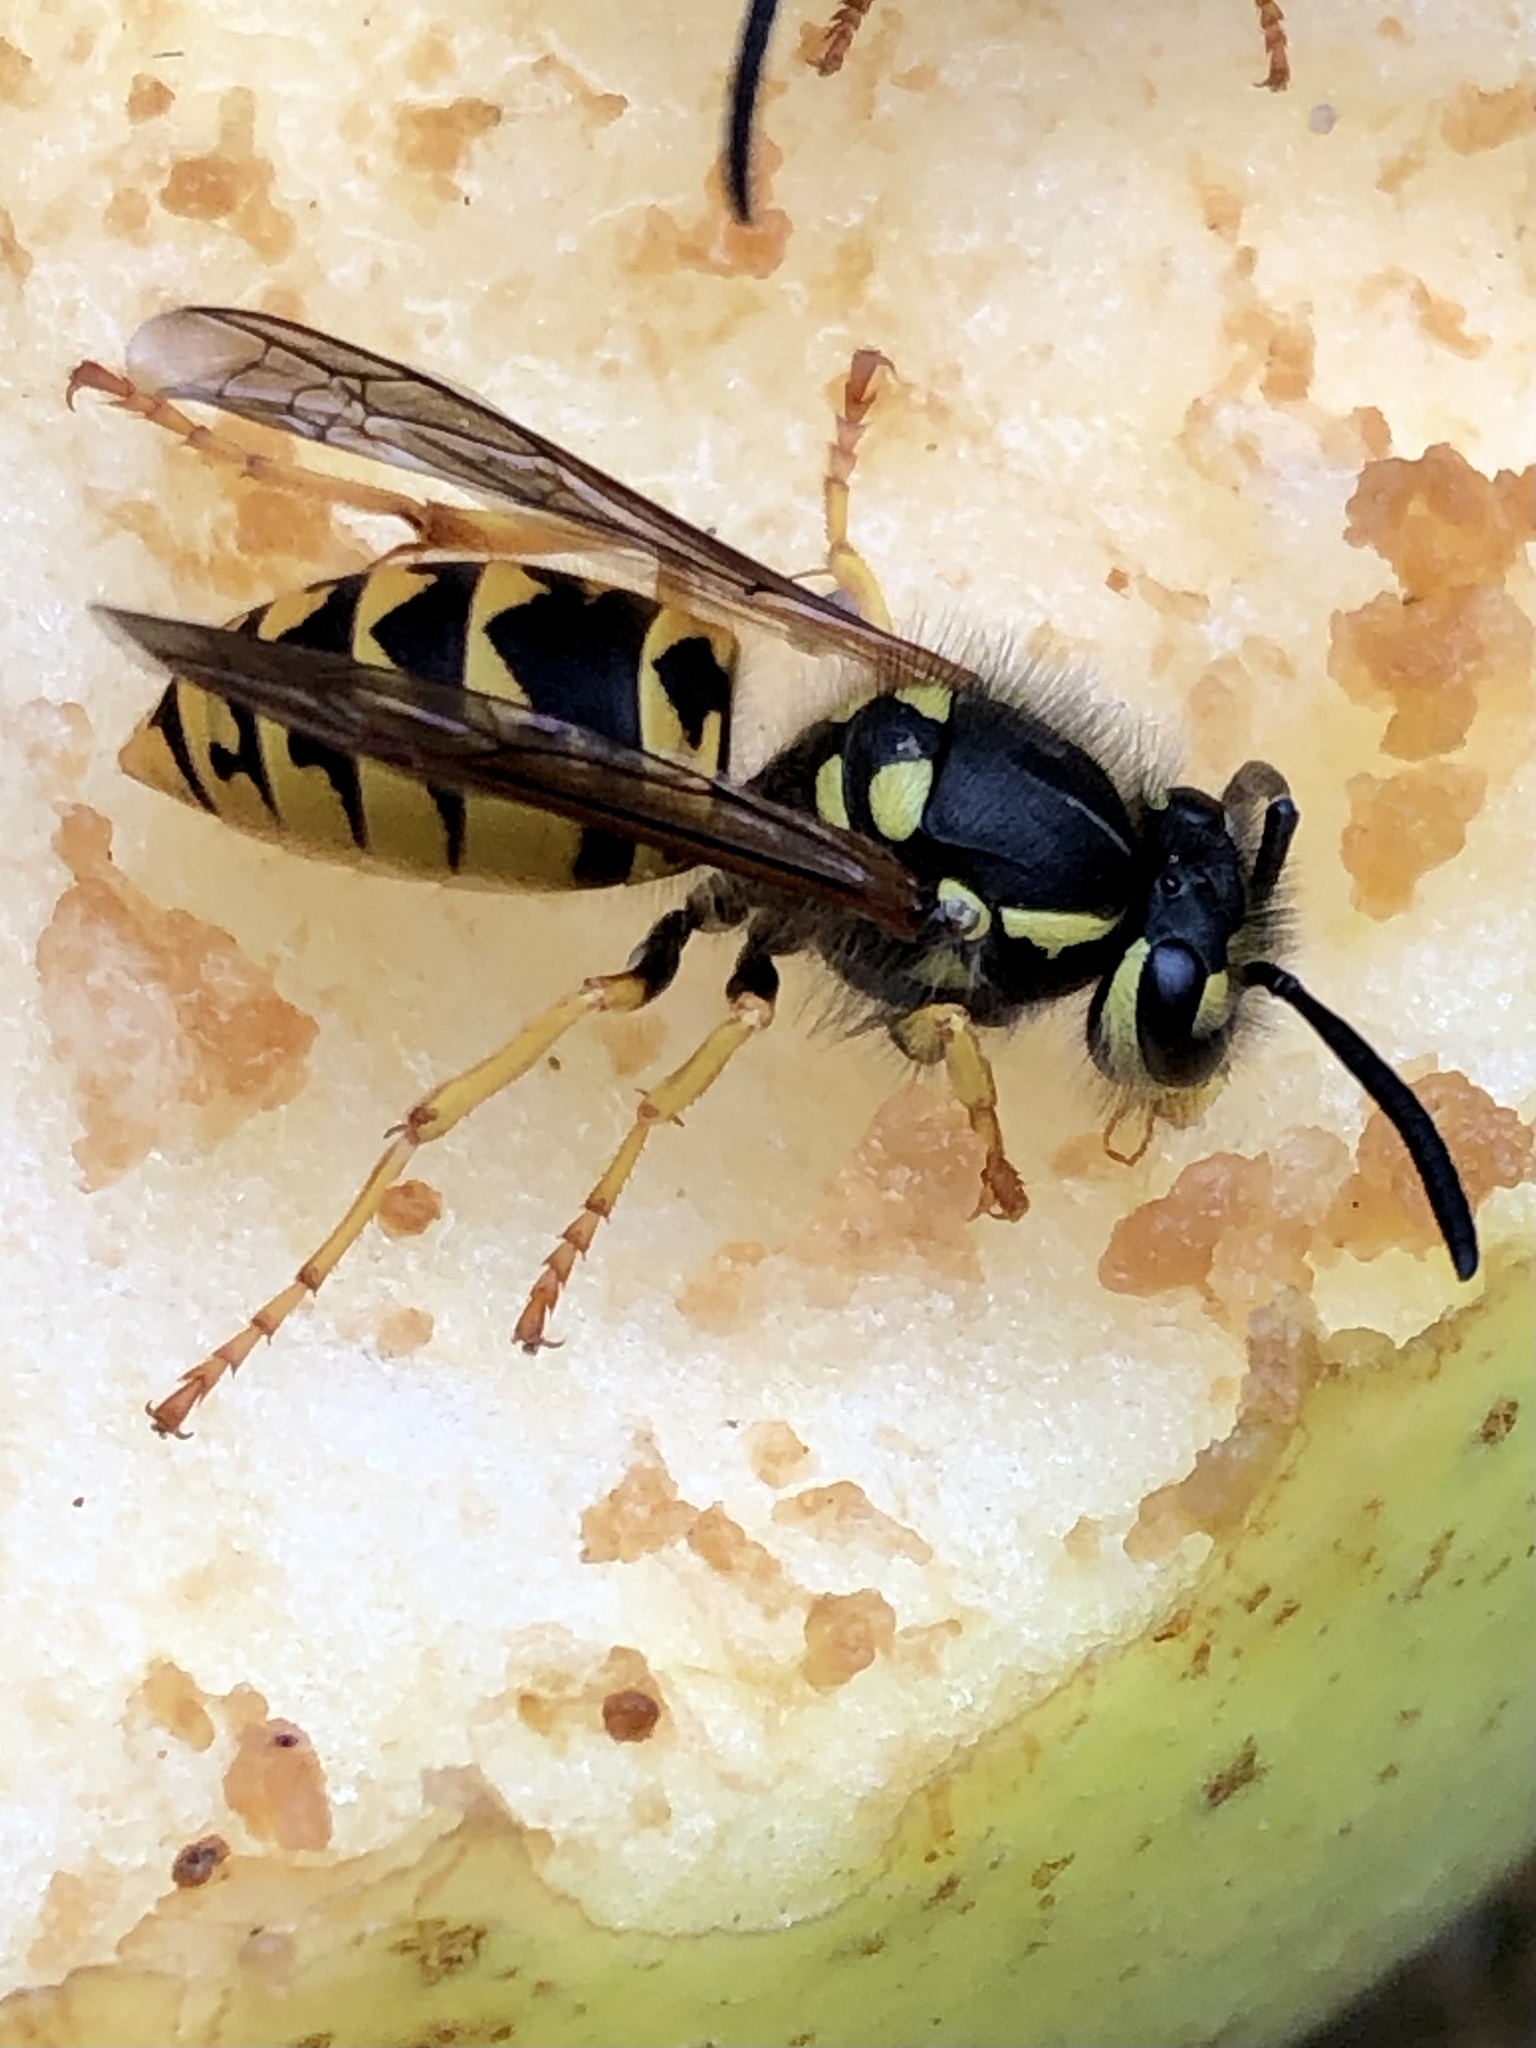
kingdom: Animalia
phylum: Arthropoda
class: Insecta
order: Hymenoptera
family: Vespidae
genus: Vespula
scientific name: Vespula germanica
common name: German wasp
